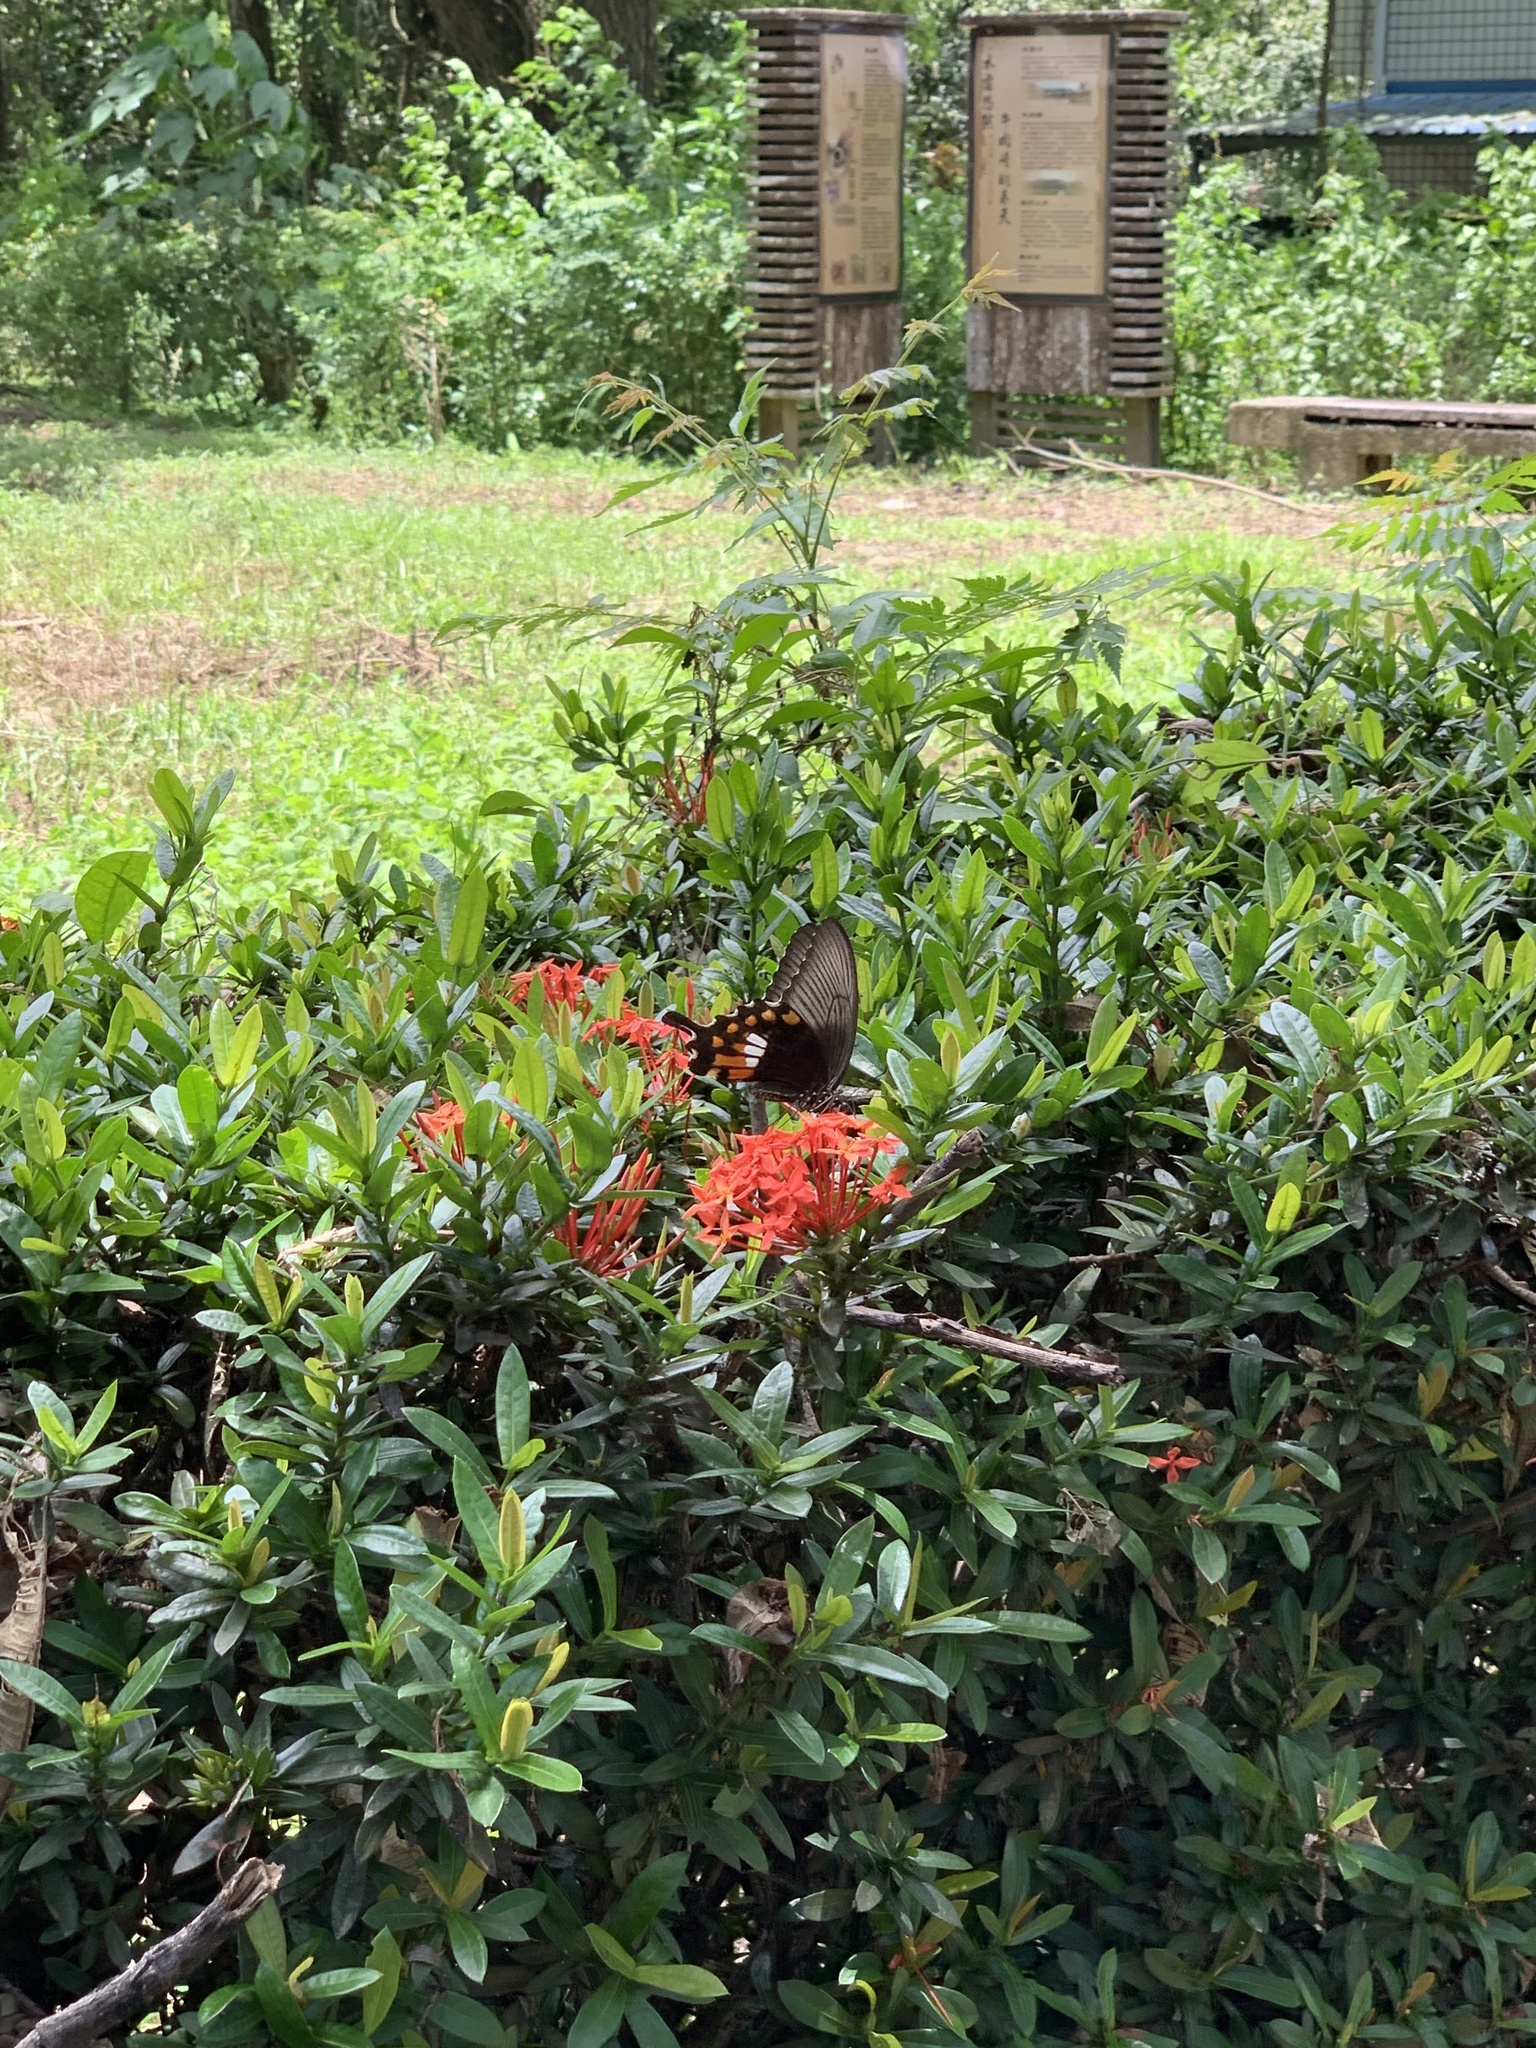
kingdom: Animalia
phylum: Arthropoda
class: Insecta
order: Lepidoptera
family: Papilionidae
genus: Papilio
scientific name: Papilio polytes
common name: Common mormon
